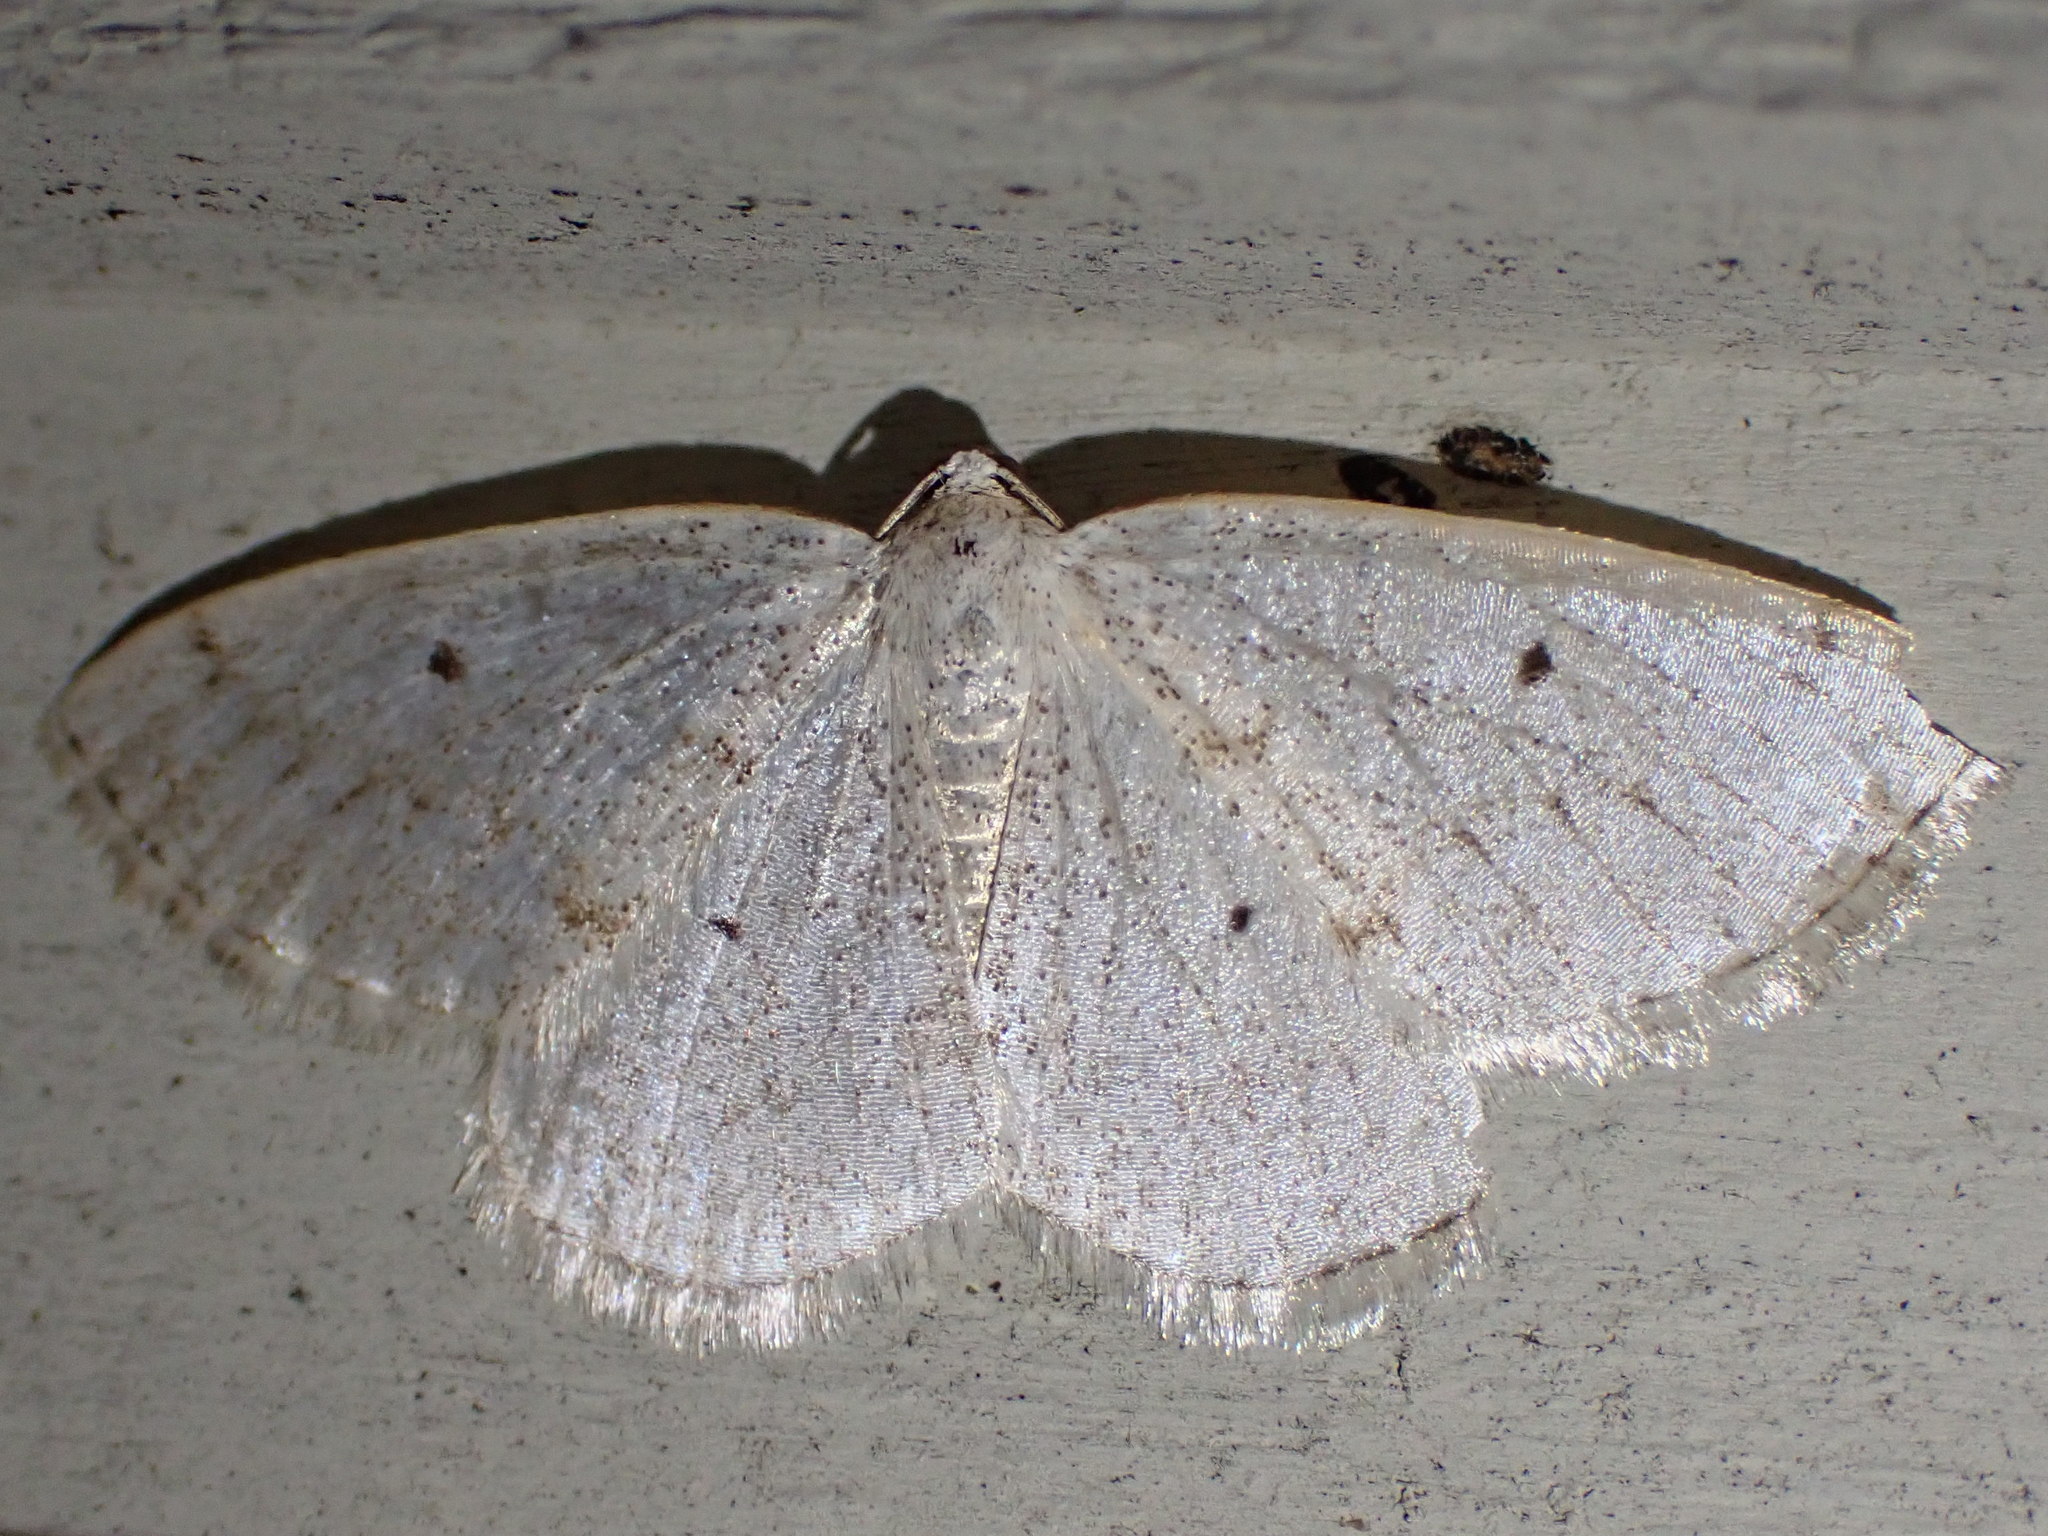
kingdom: Animalia
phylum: Arthropoda
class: Insecta
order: Lepidoptera
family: Geometridae
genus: Lomographa
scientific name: Lomographa glomeraria
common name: Gray spring moth
